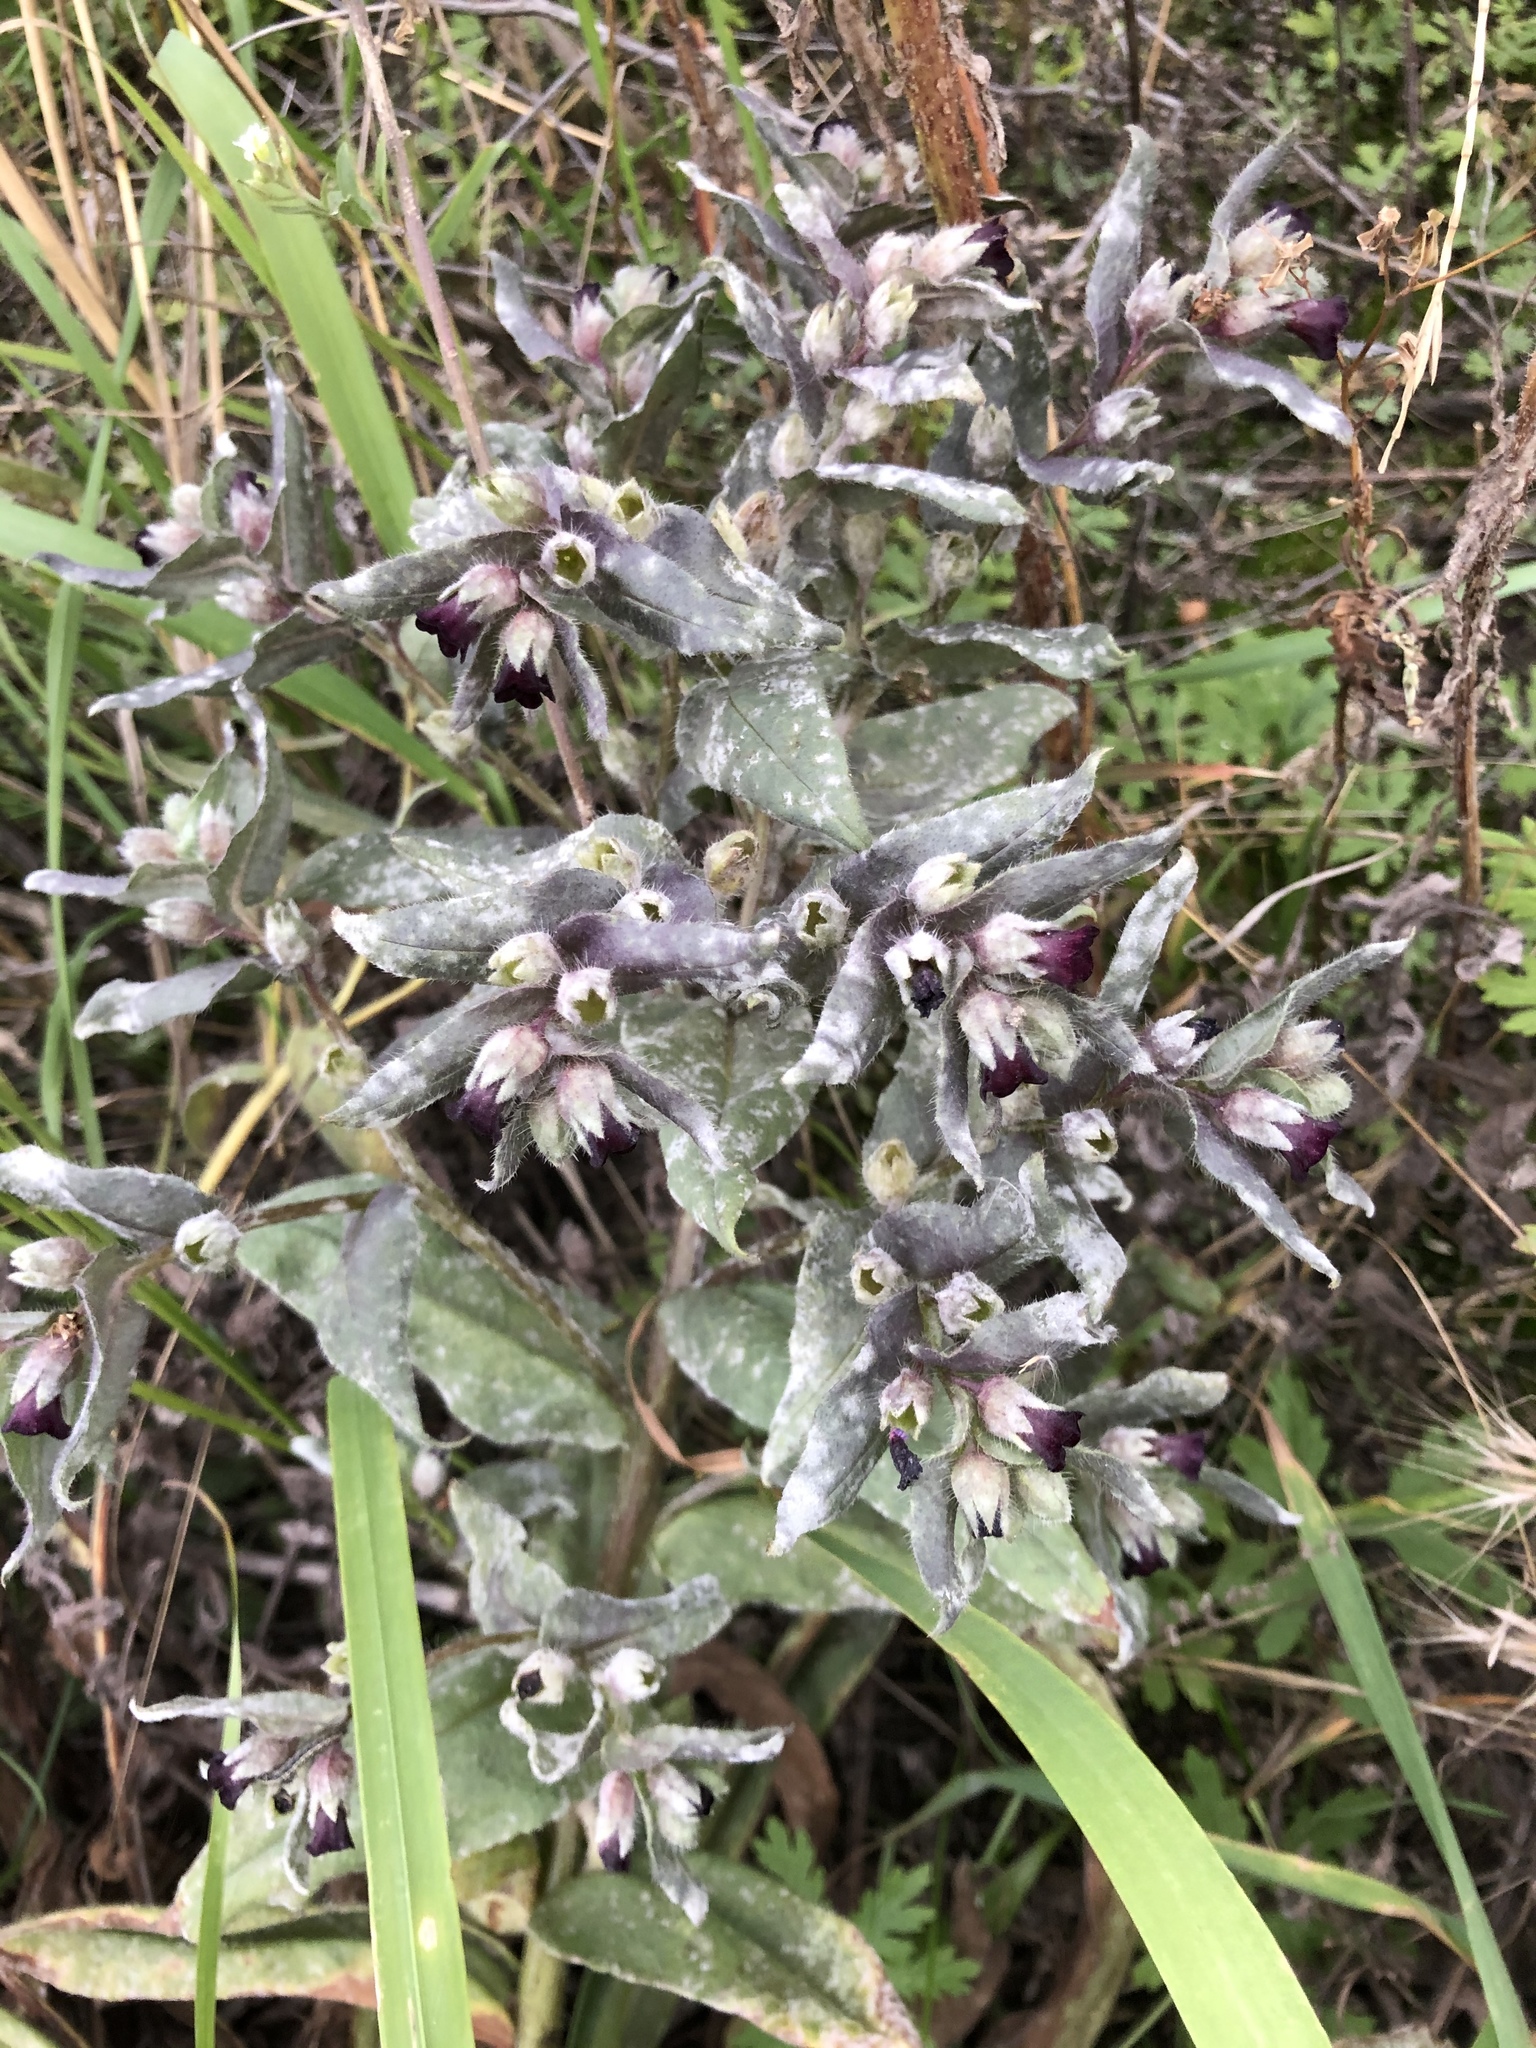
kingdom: Plantae
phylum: Tracheophyta
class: Magnoliopsida
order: Boraginales
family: Boraginaceae
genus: Nonea
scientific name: Nonea pulla
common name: Brown nonea
